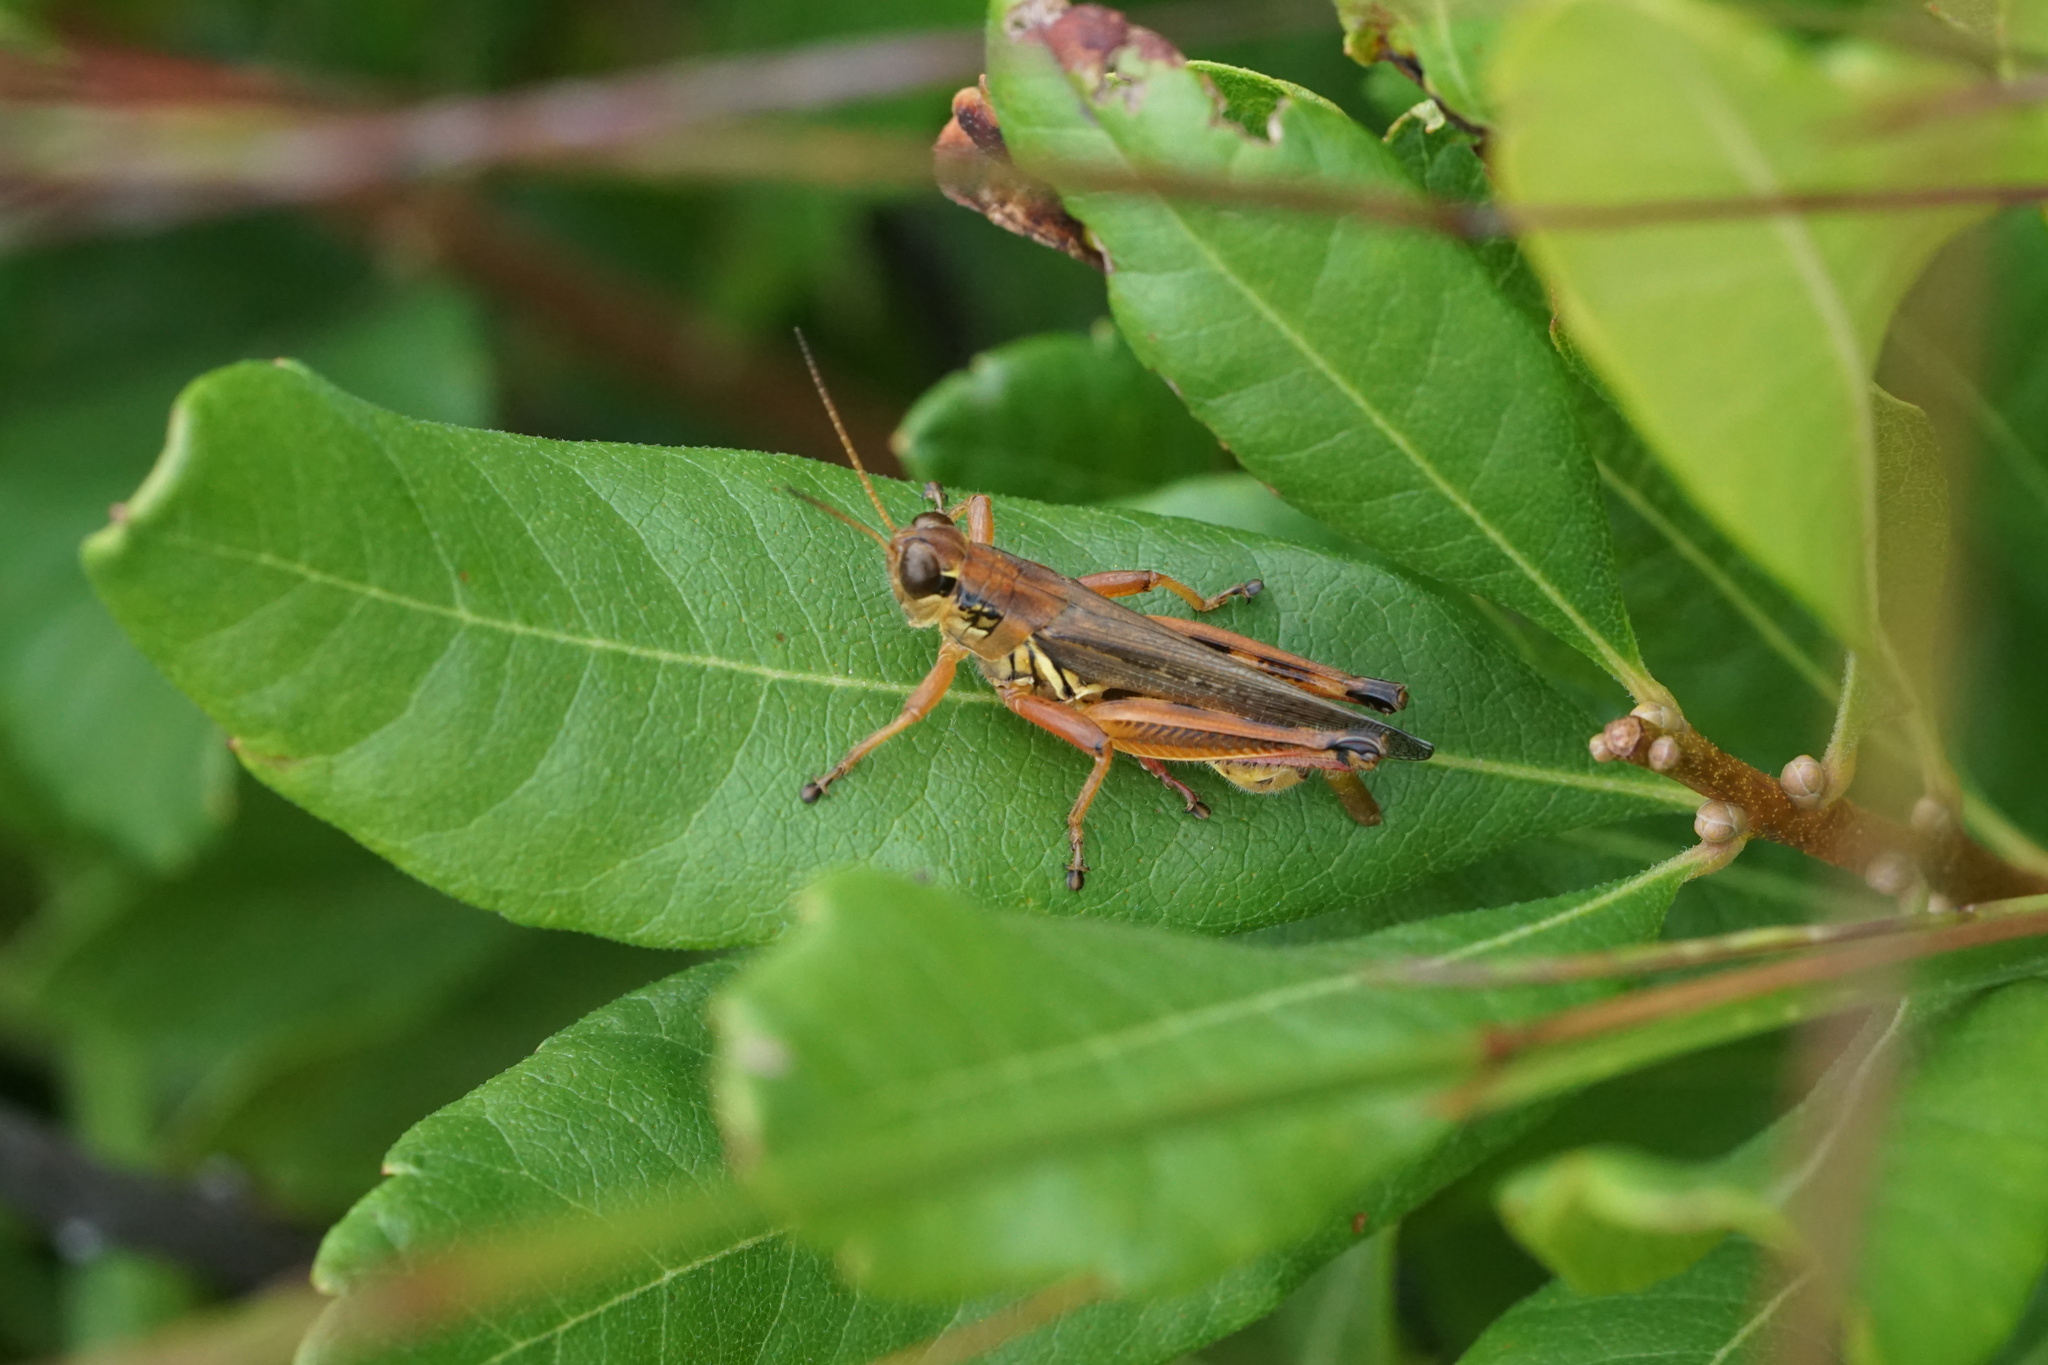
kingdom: Animalia
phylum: Arthropoda
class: Insecta
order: Orthoptera
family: Acrididae
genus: Melanoplus
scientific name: Melanoplus femurrubrum
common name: Red-legged grasshopper
